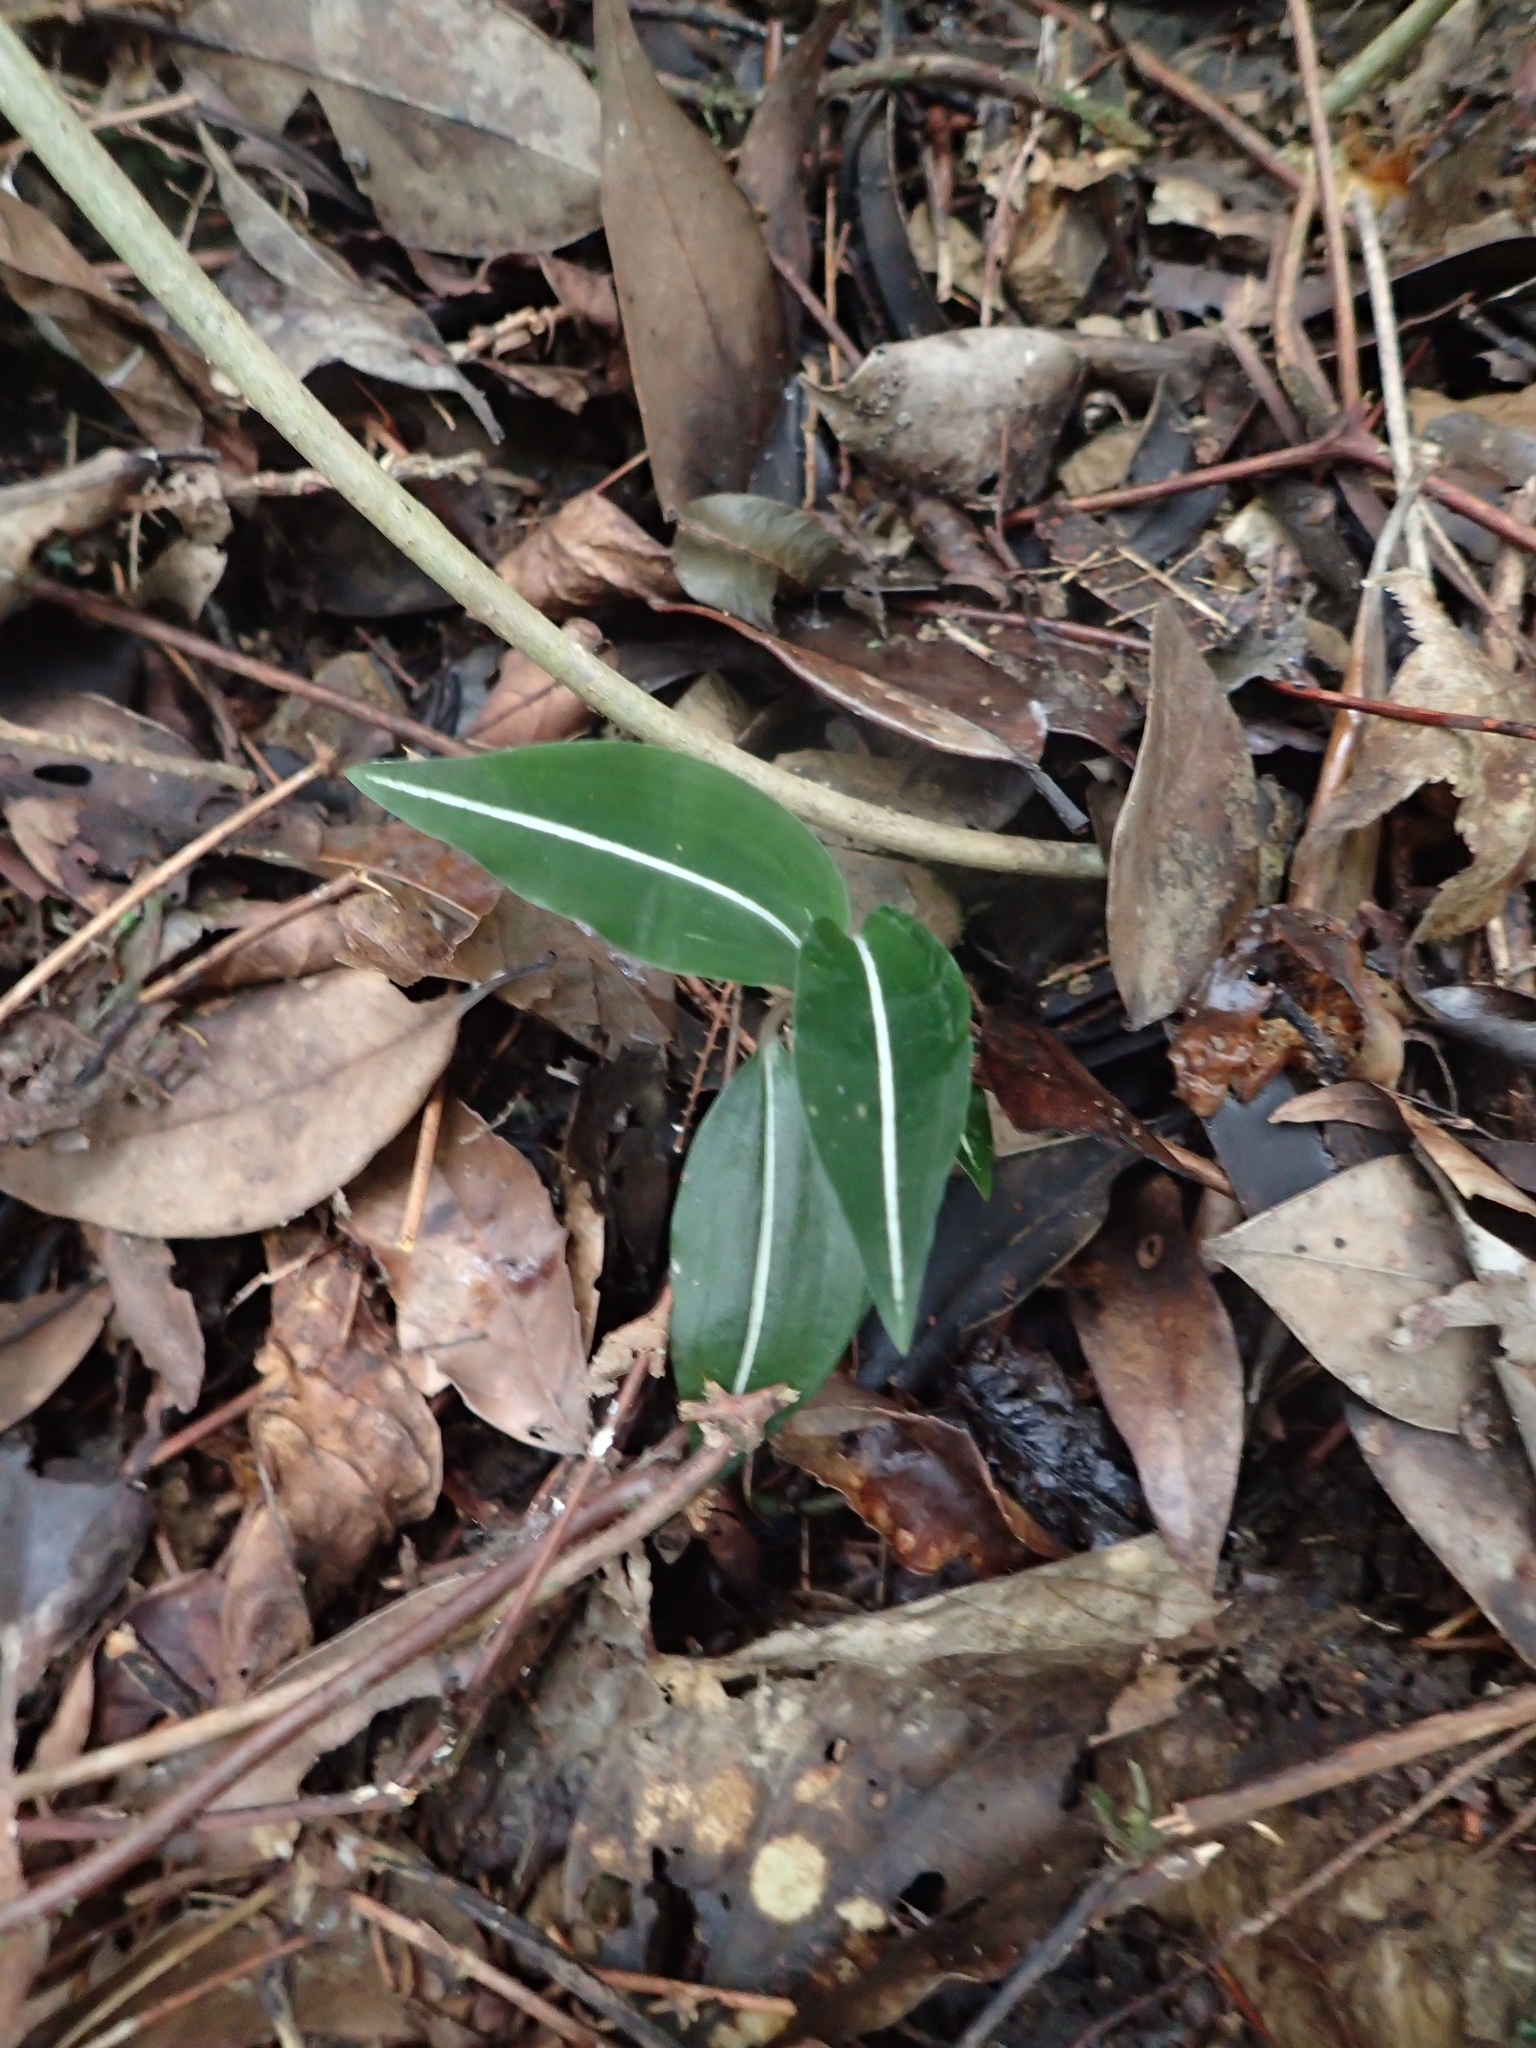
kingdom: Plantae
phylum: Tracheophyta
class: Liliopsida
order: Asparagales
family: Orchidaceae
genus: Rhomboda
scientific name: Rhomboda yakusimensis
